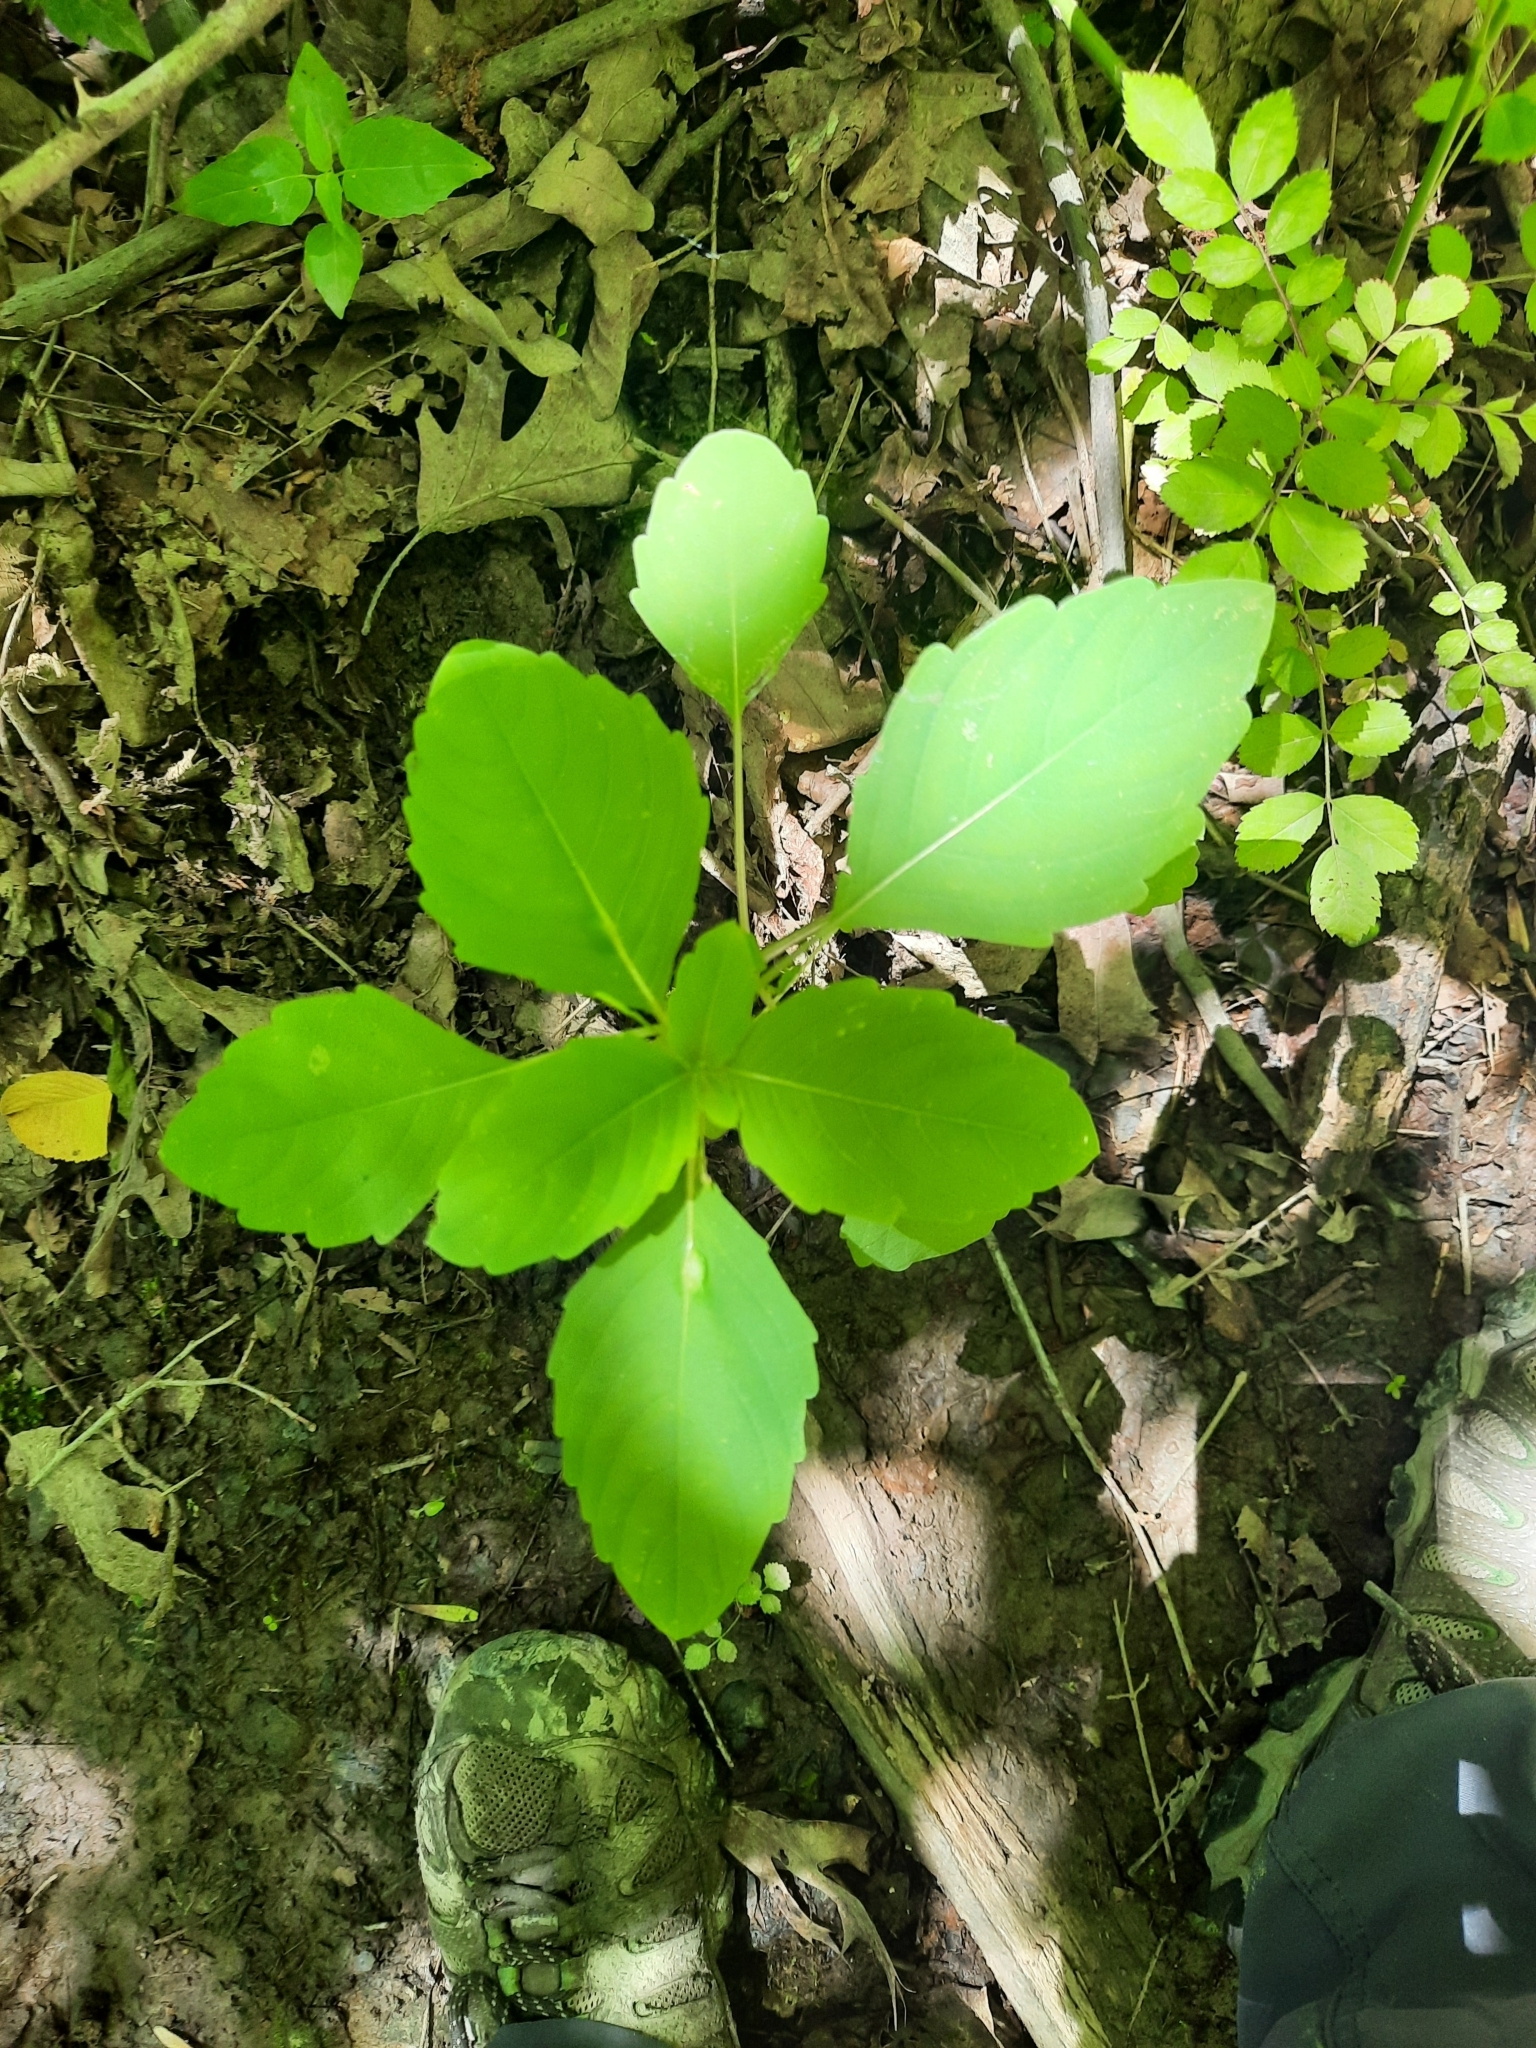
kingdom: Plantae
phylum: Tracheophyta
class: Magnoliopsida
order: Ericales
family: Balsaminaceae
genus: Impatiens
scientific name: Impatiens capensis
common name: Orange balsam
